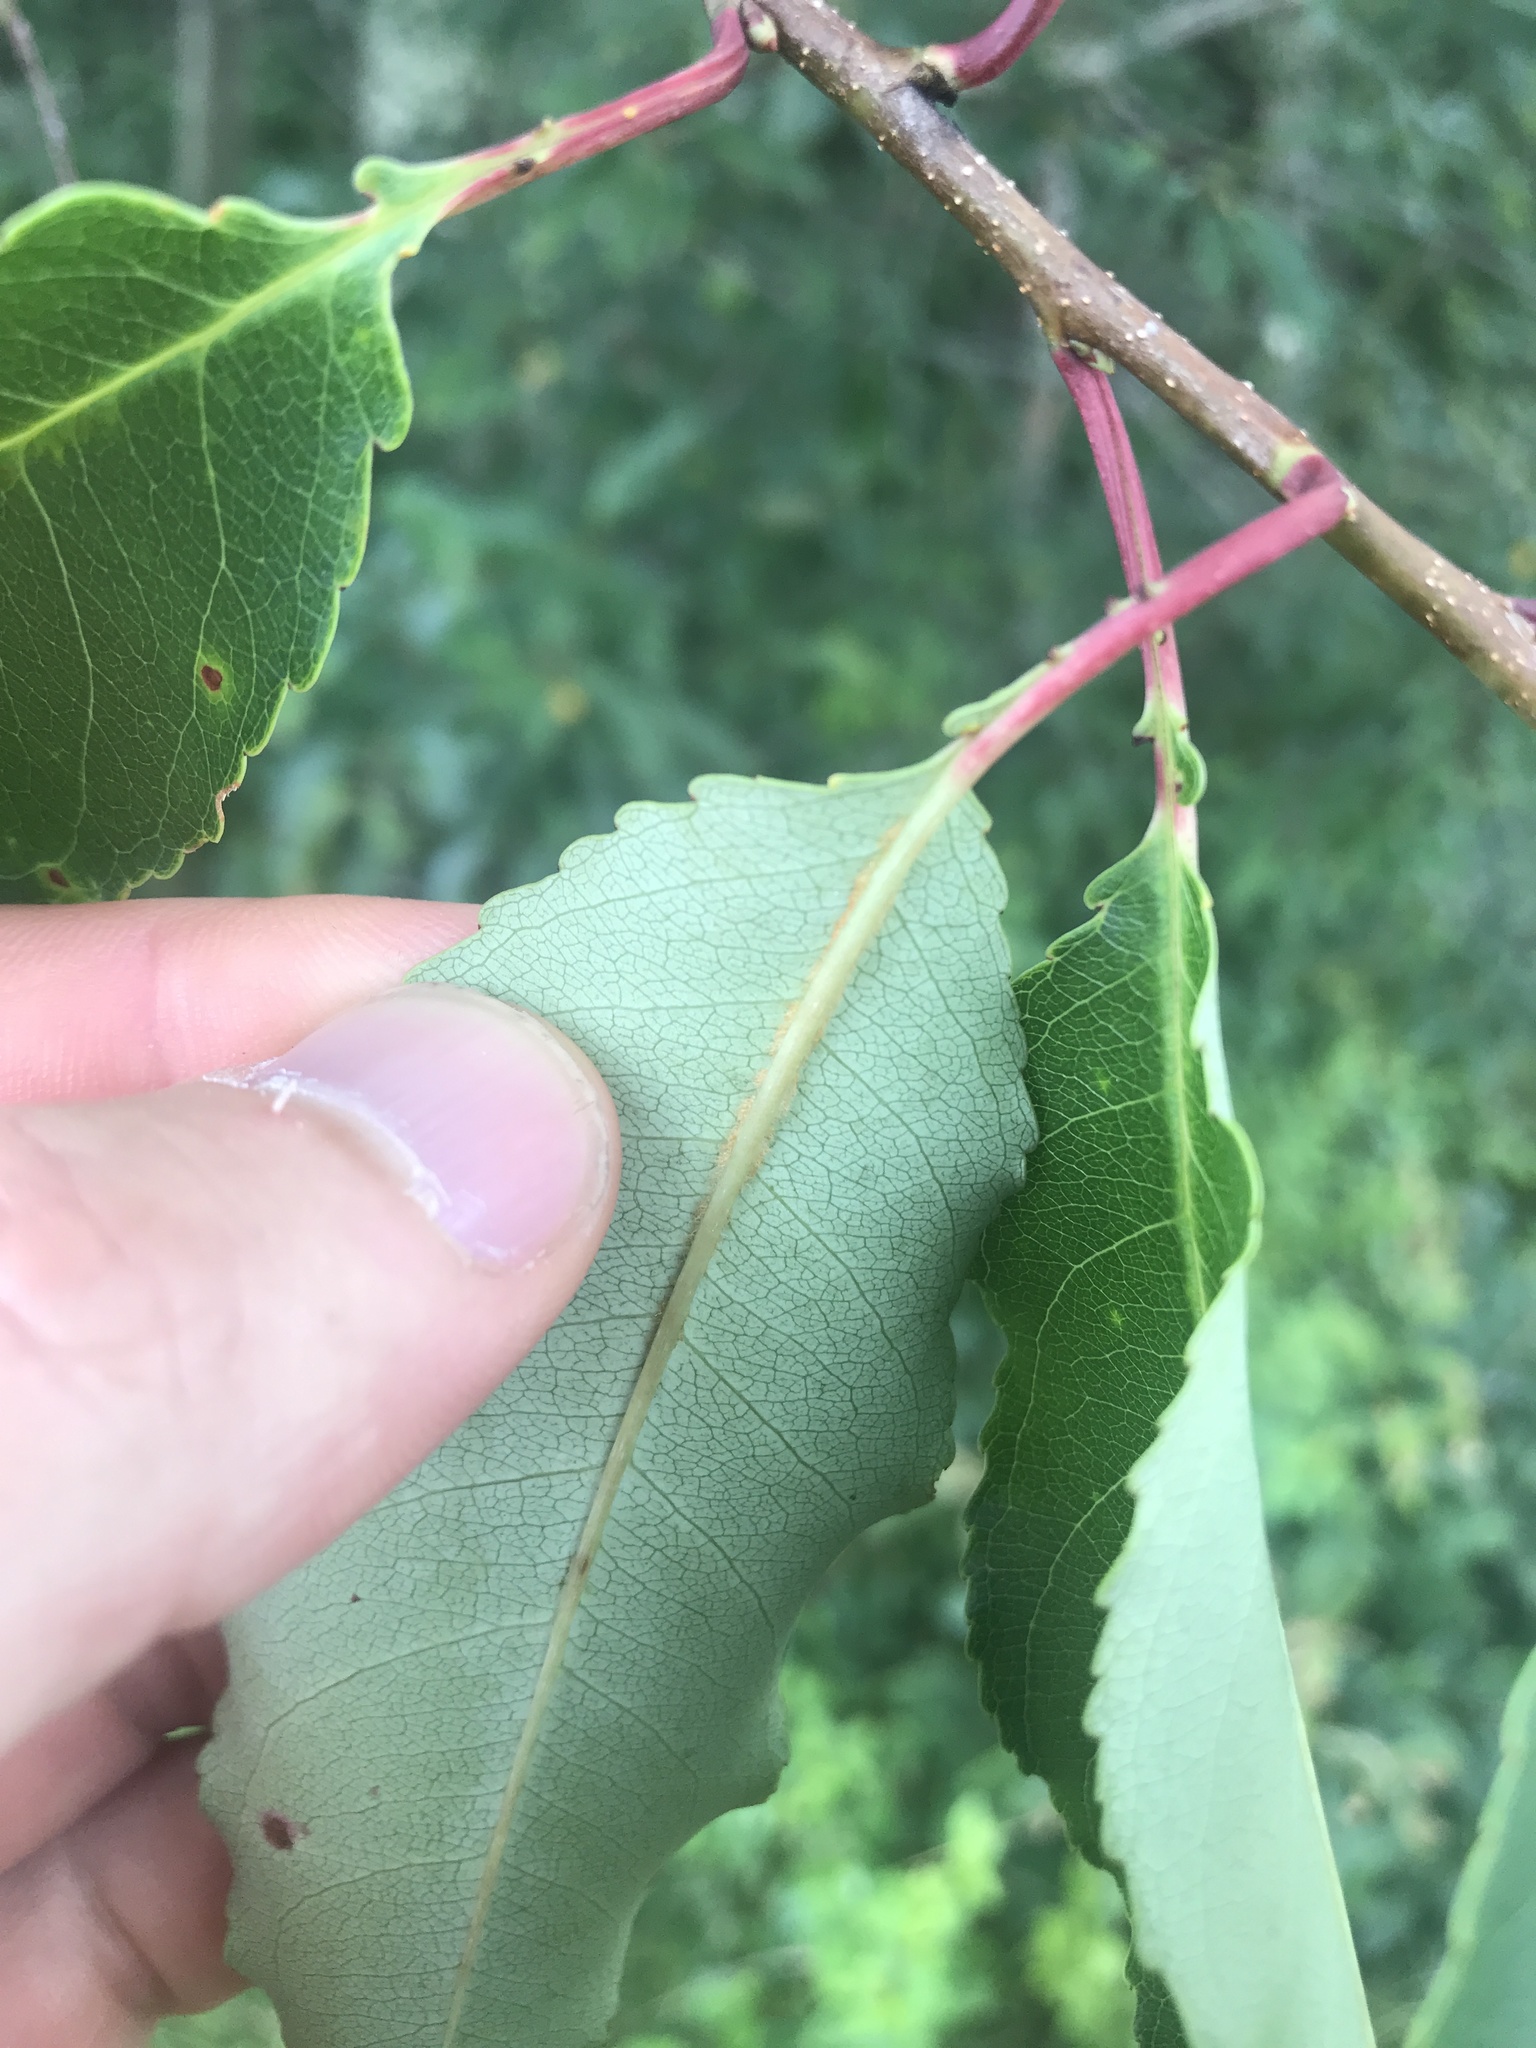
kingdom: Plantae
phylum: Tracheophyta
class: Magnoliopsida
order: Rosales
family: Rosaceae
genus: Prunus
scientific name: Prunus serotina
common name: Black cherry
